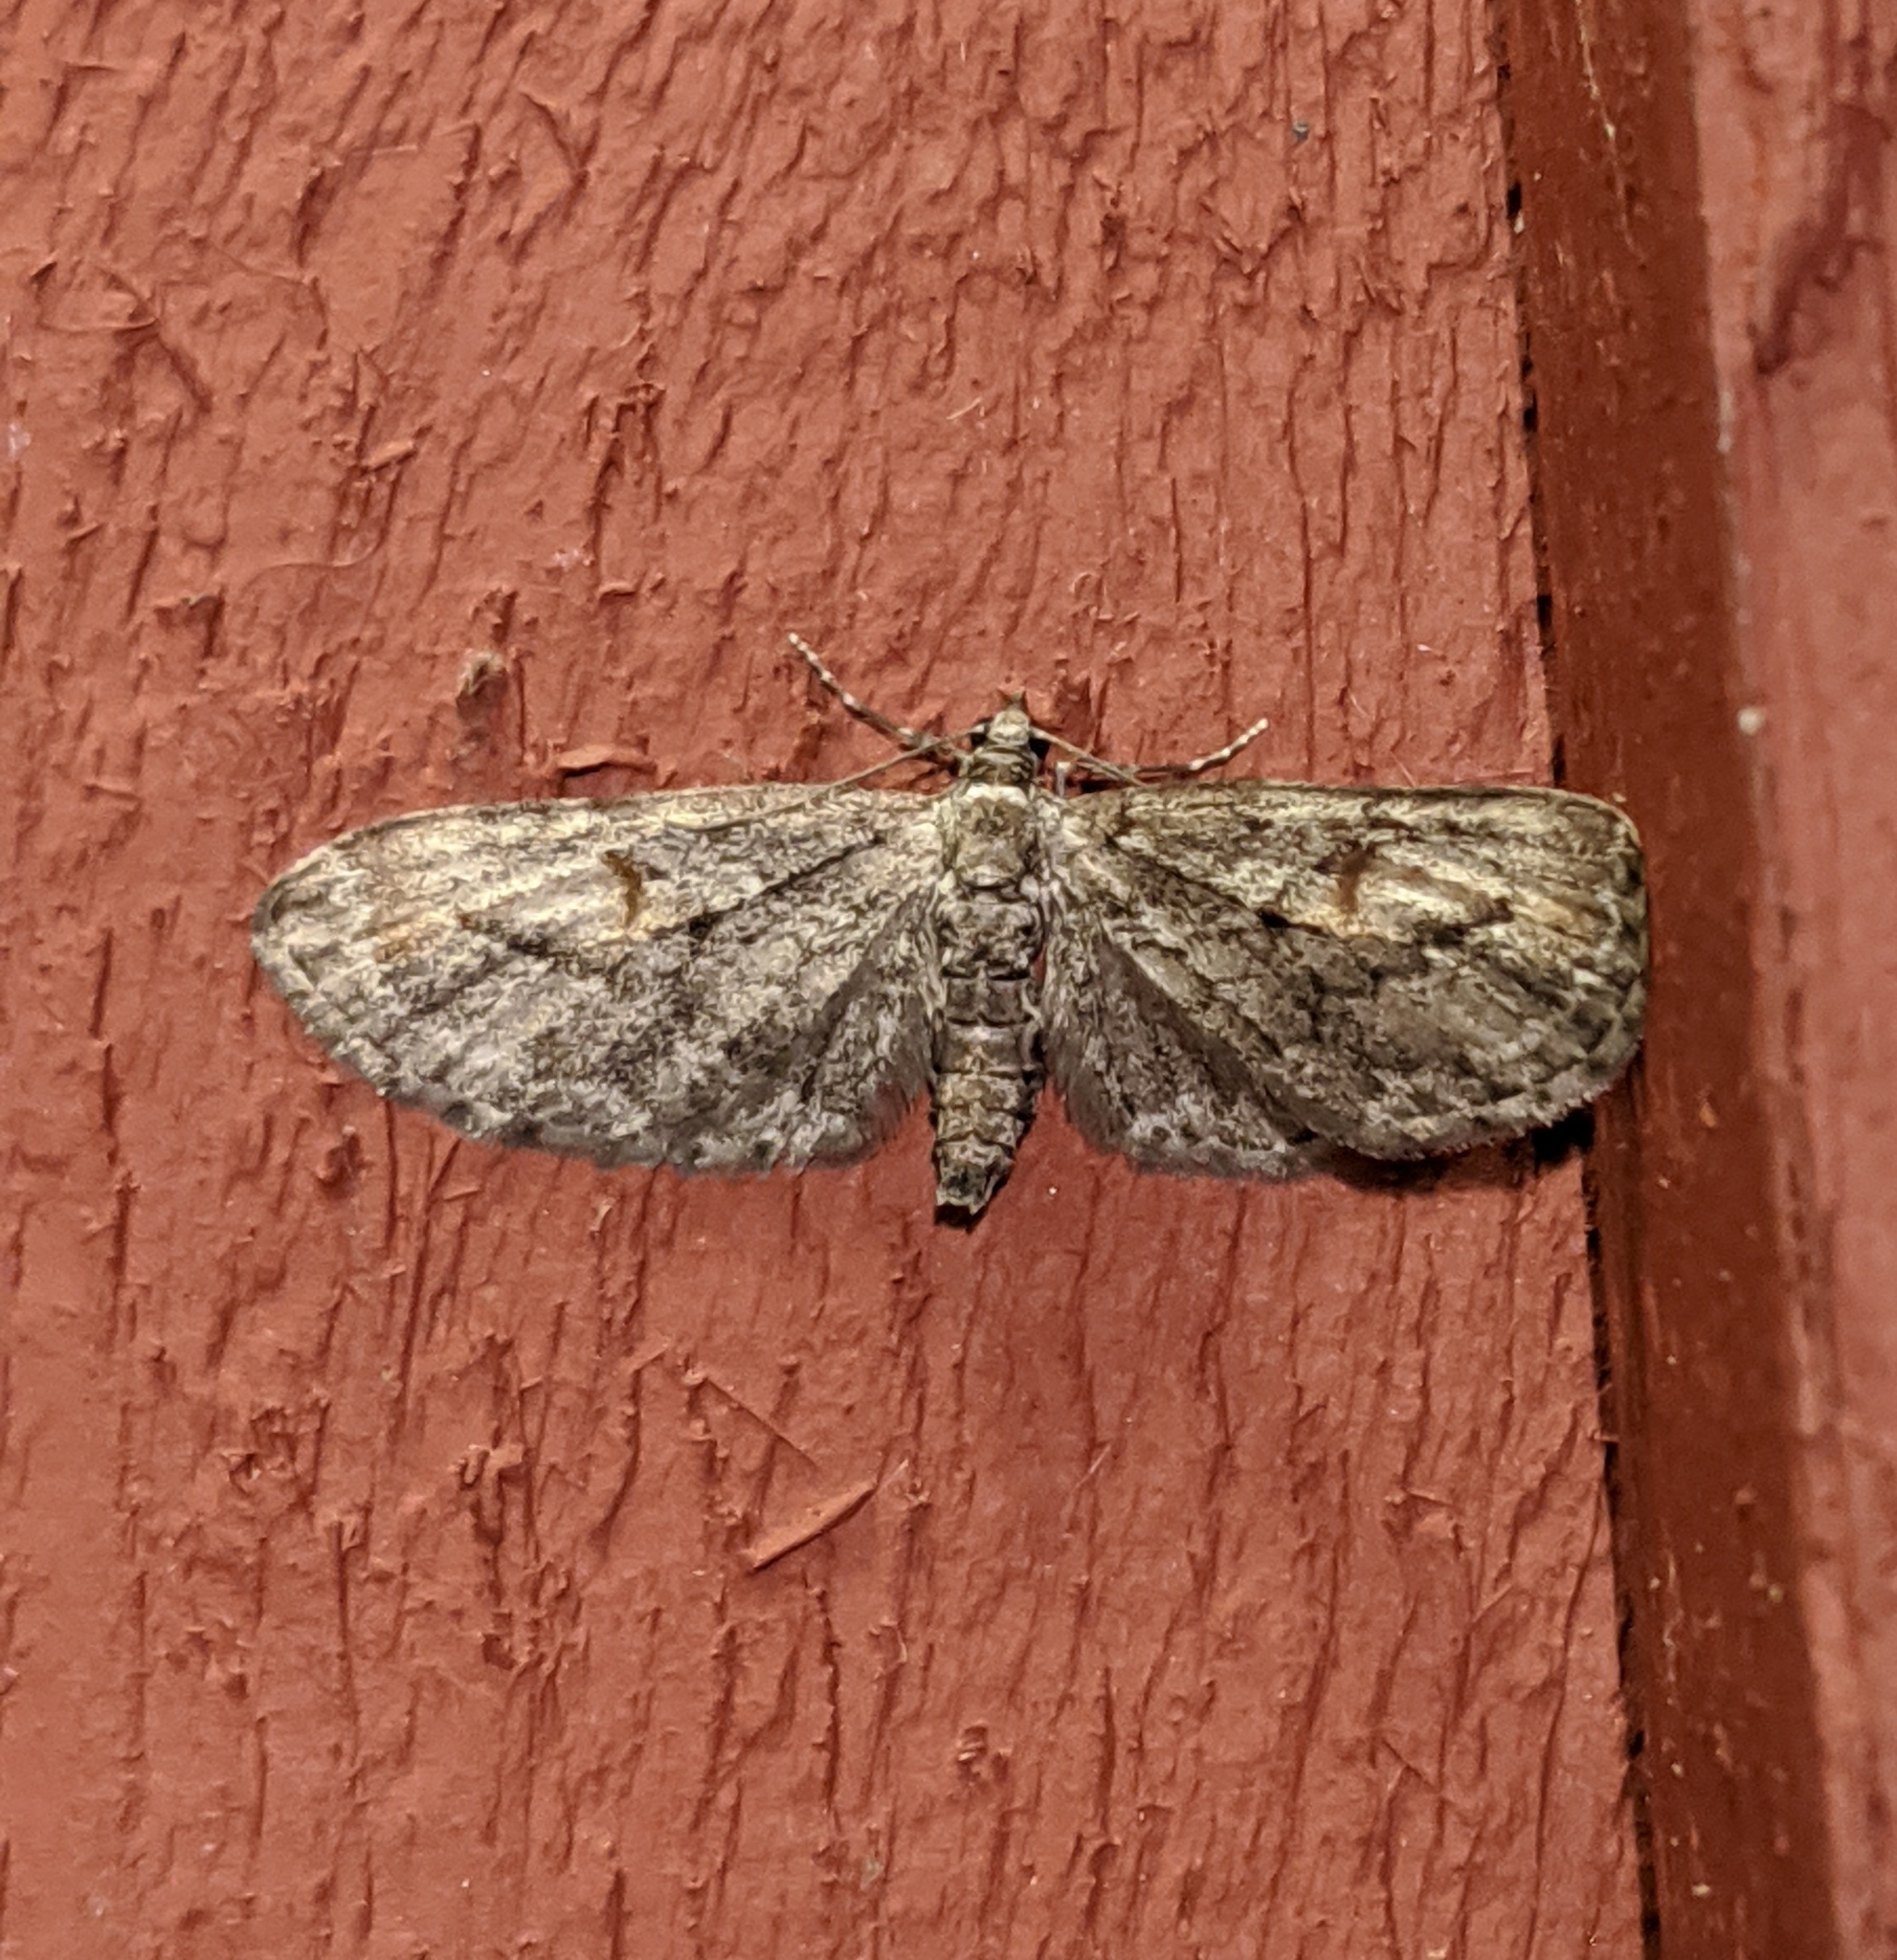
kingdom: Animalia
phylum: Arthropoda
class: Insecta
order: Lepidoptera
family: Geometridae
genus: Eupithecia
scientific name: Eupithecia graefii
